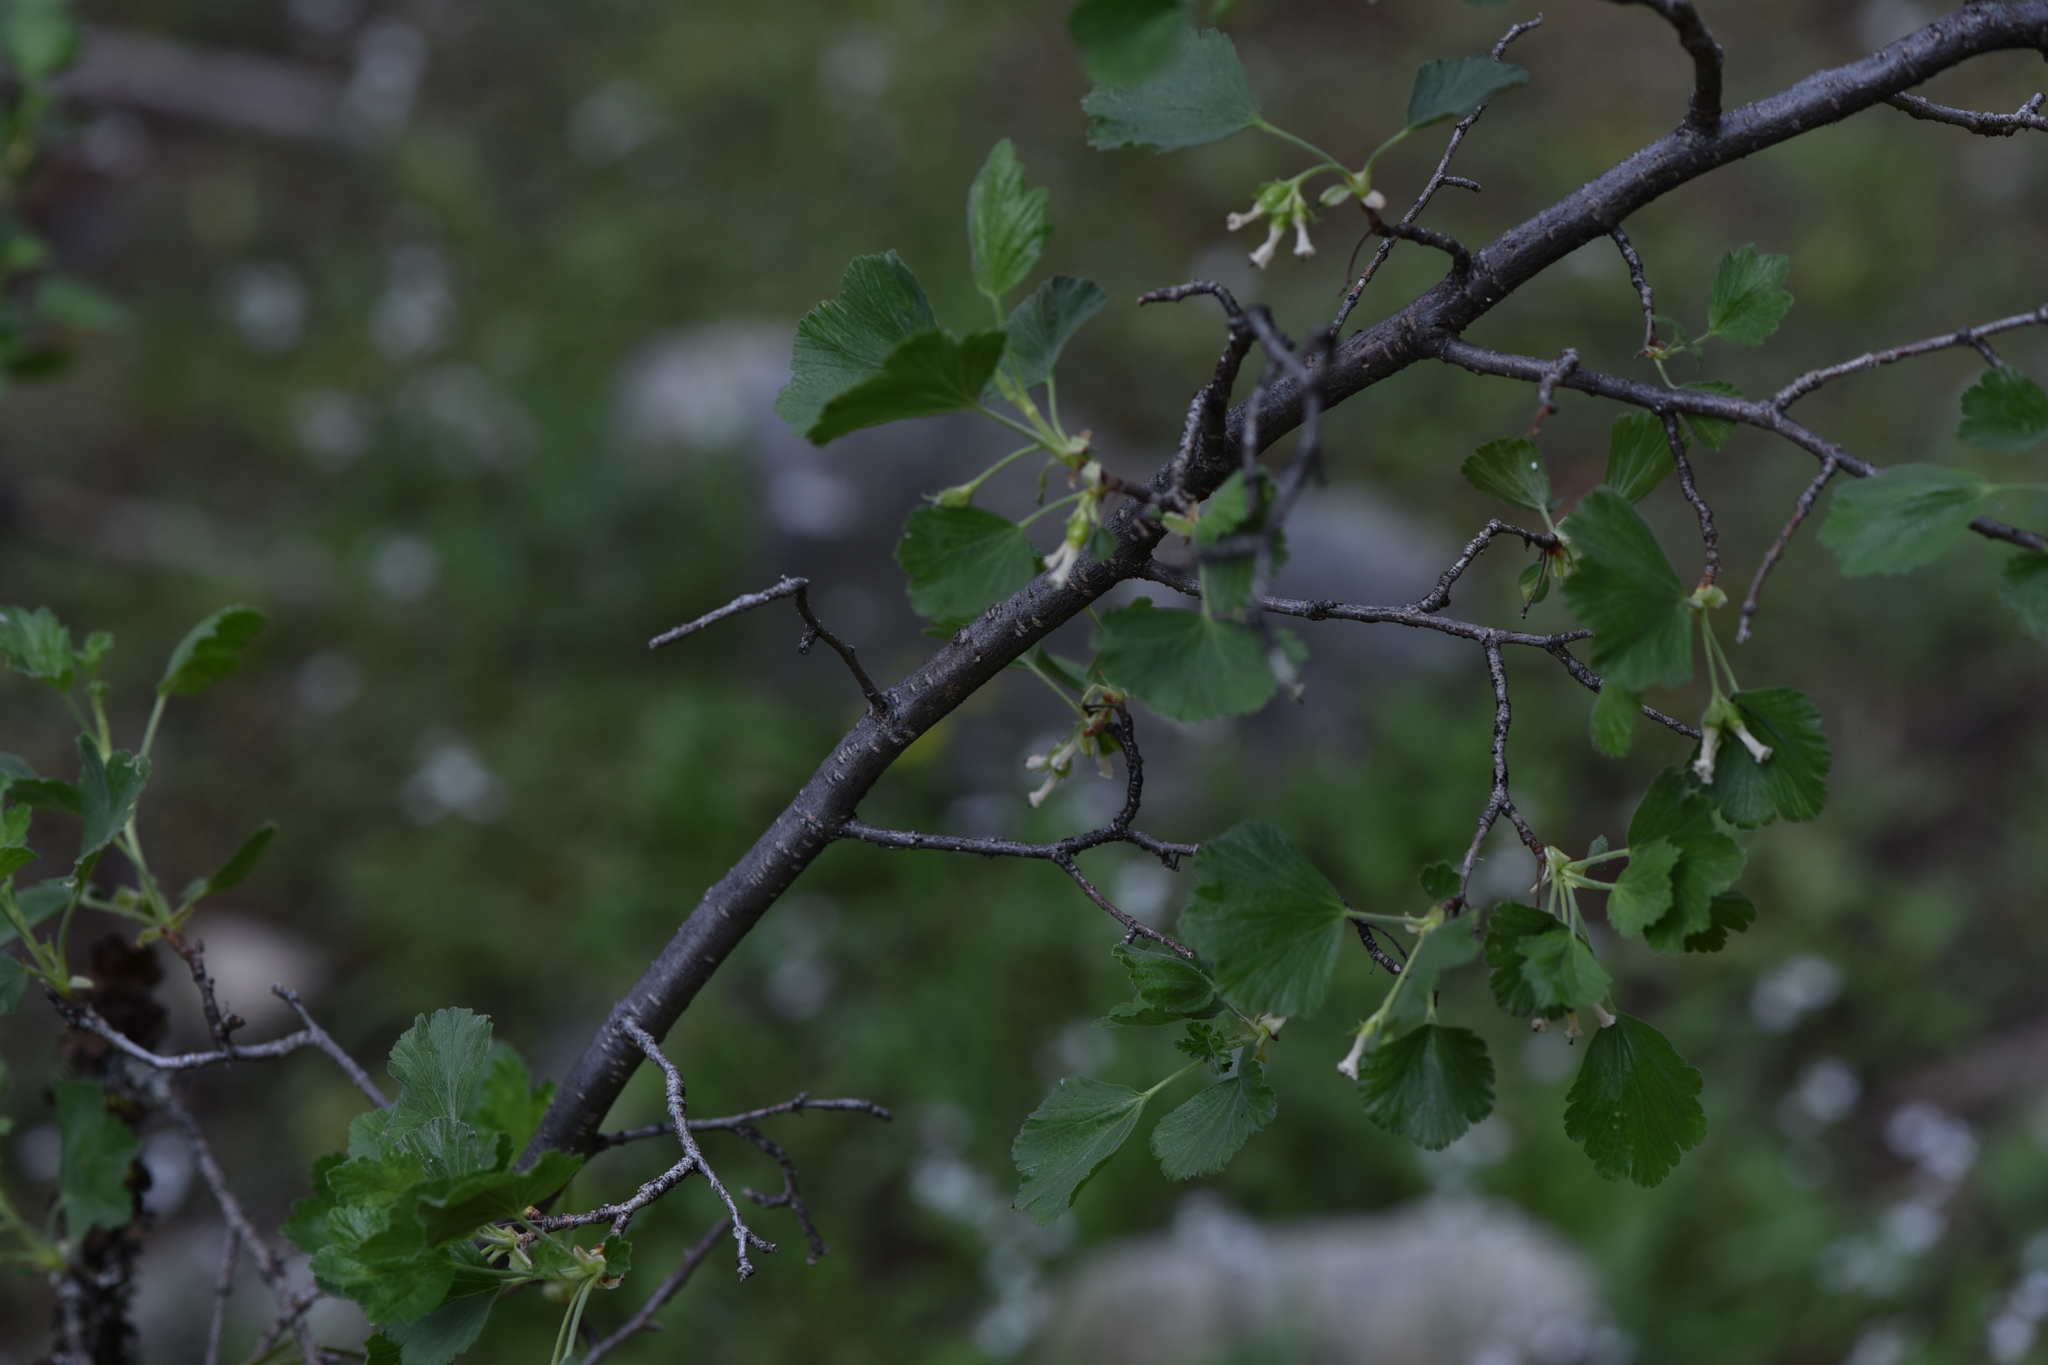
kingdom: Plantae
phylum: Tracheophyta
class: Magnoliopsida
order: Saxifragales
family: Grossulariaceae
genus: Ribes
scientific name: Ribes cereum
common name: Wax currant
